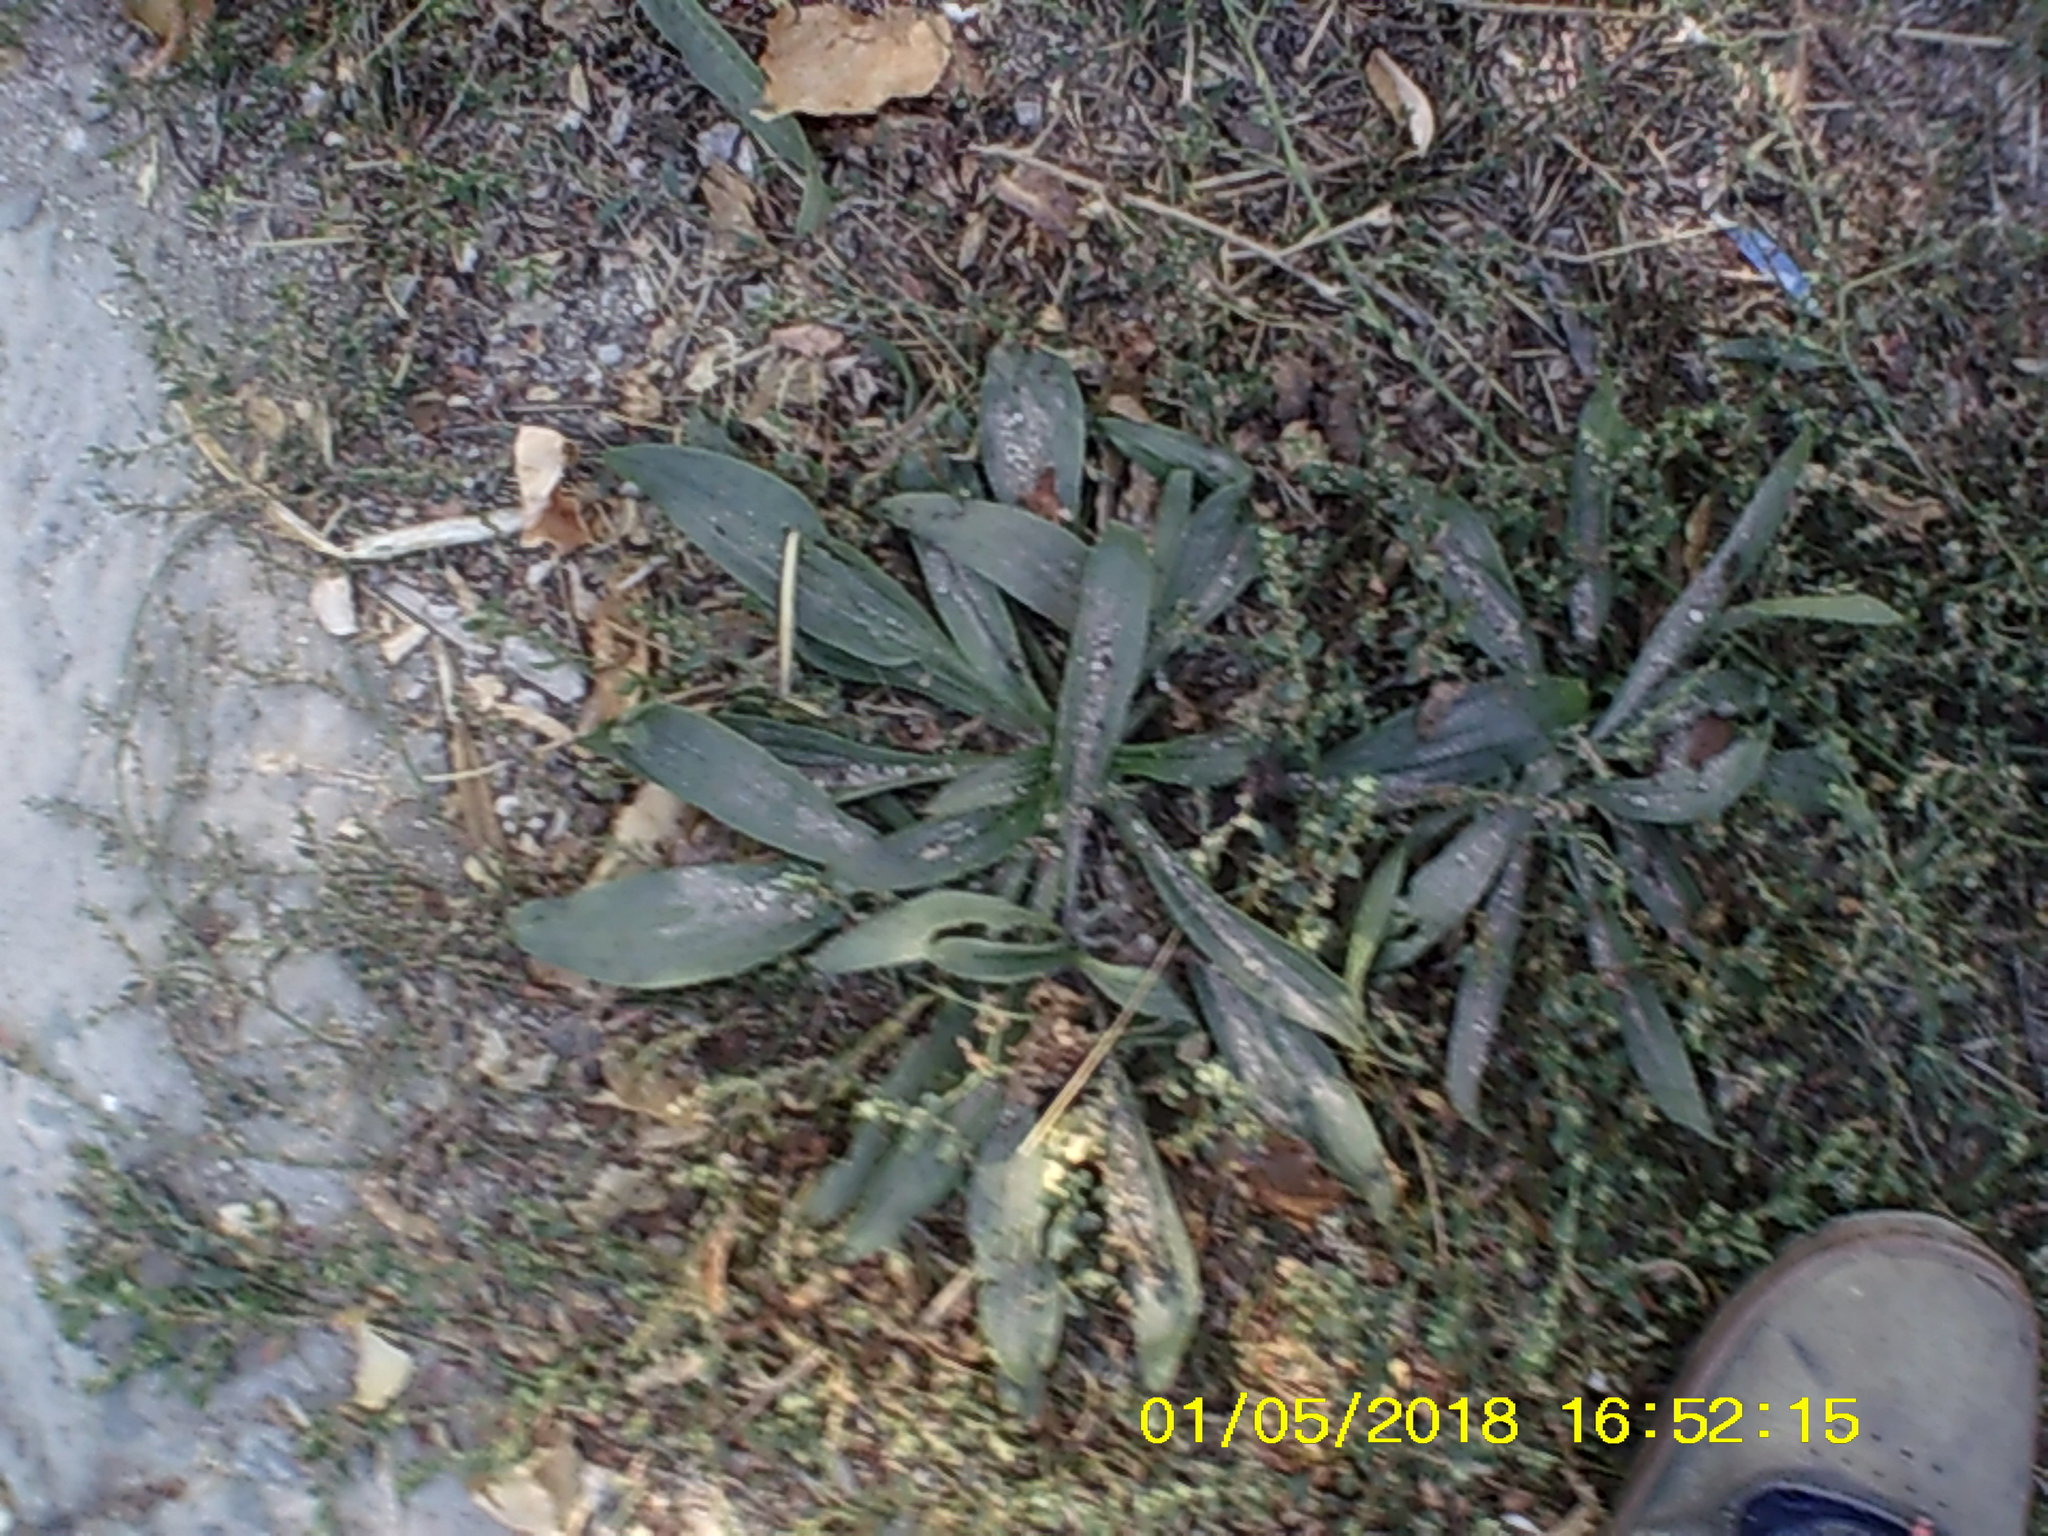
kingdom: Plantae
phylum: Tracheophyta
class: Magnoliopsida
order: Lamiales
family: Plantaginaceae
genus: Plantago
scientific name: Plantago lanceolata
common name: Ribwort plantain
